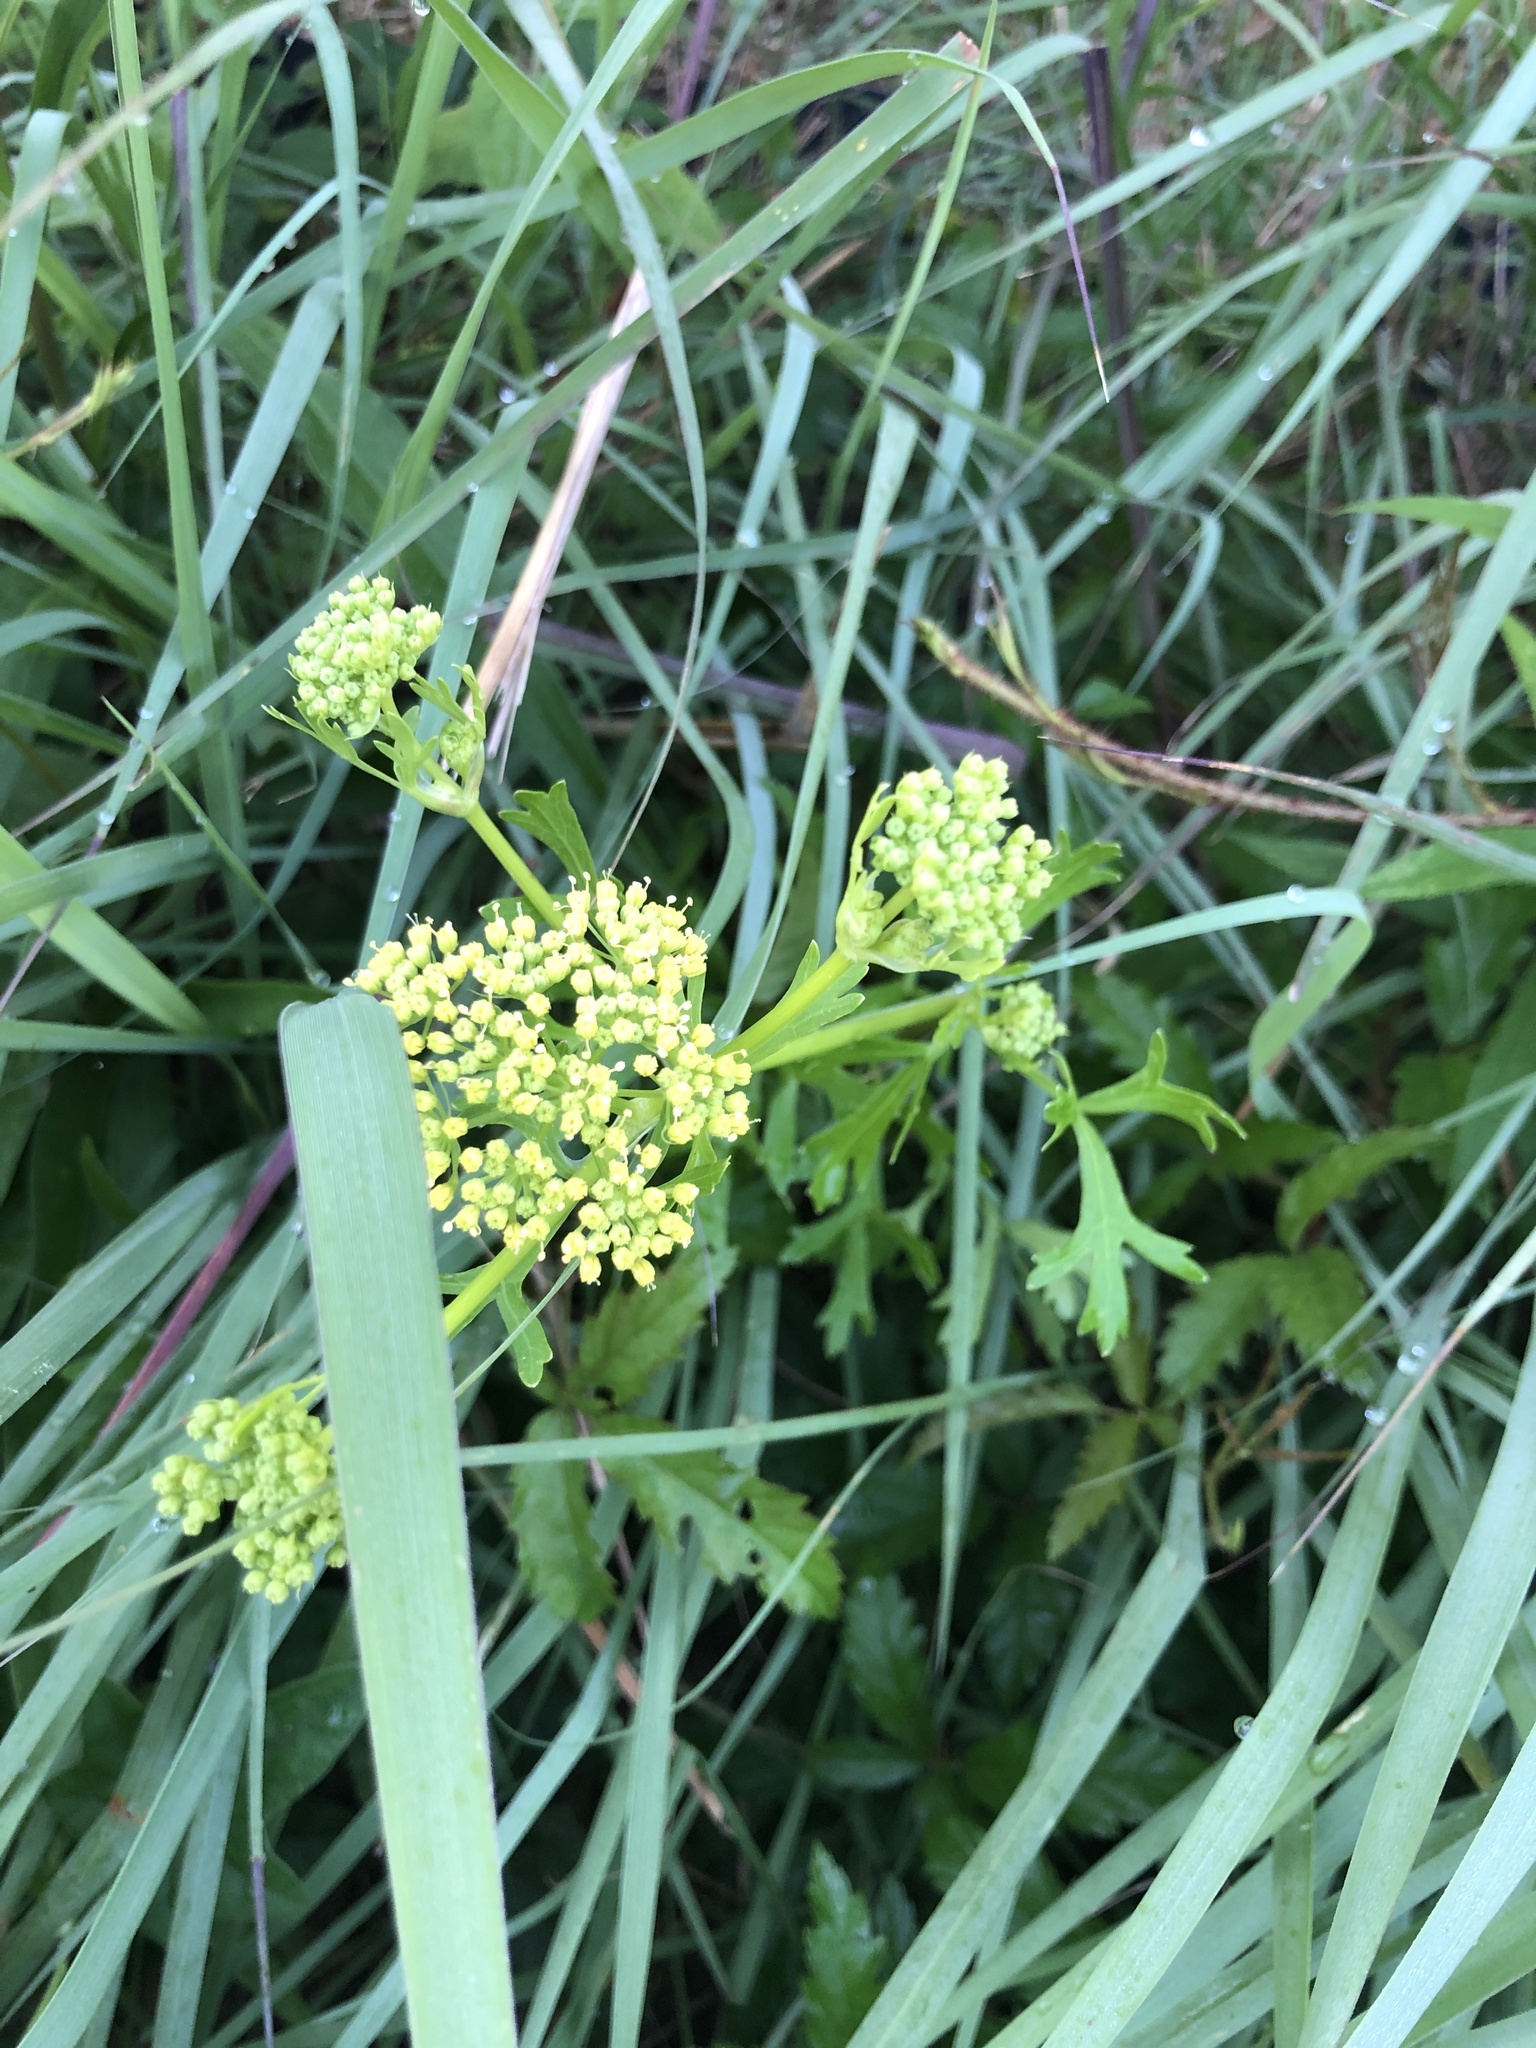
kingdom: Plantae
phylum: Tracheophyta
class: Magnoliopsida
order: Apiales
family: Apiaceae
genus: Polytaenia
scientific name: Polytaenia texana
